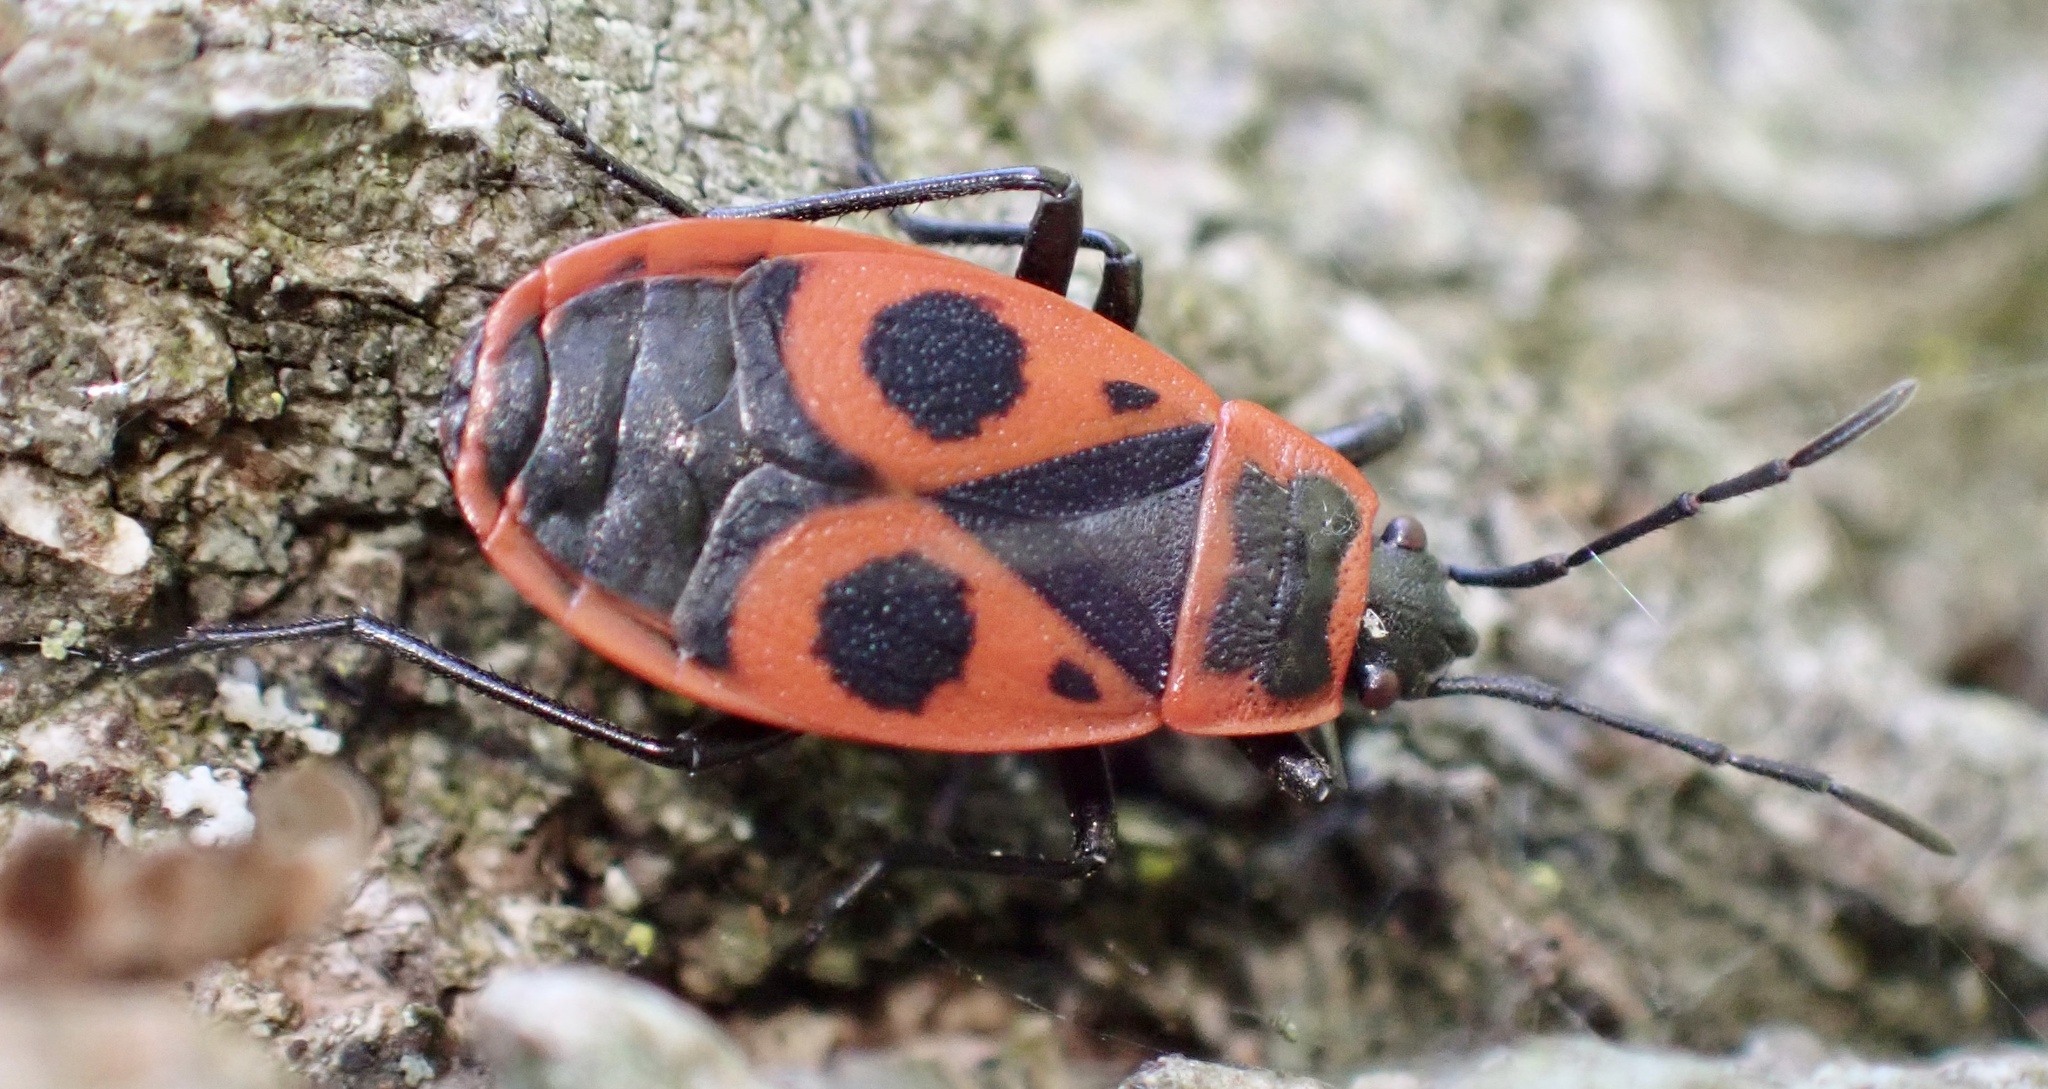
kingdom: Animalia
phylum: Arthropoda
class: Insecta
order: Hemiptera
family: Pyrrhocoridae
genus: Pyrrhocoris
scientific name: Pyrrhocoris apterus
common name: Firebug
